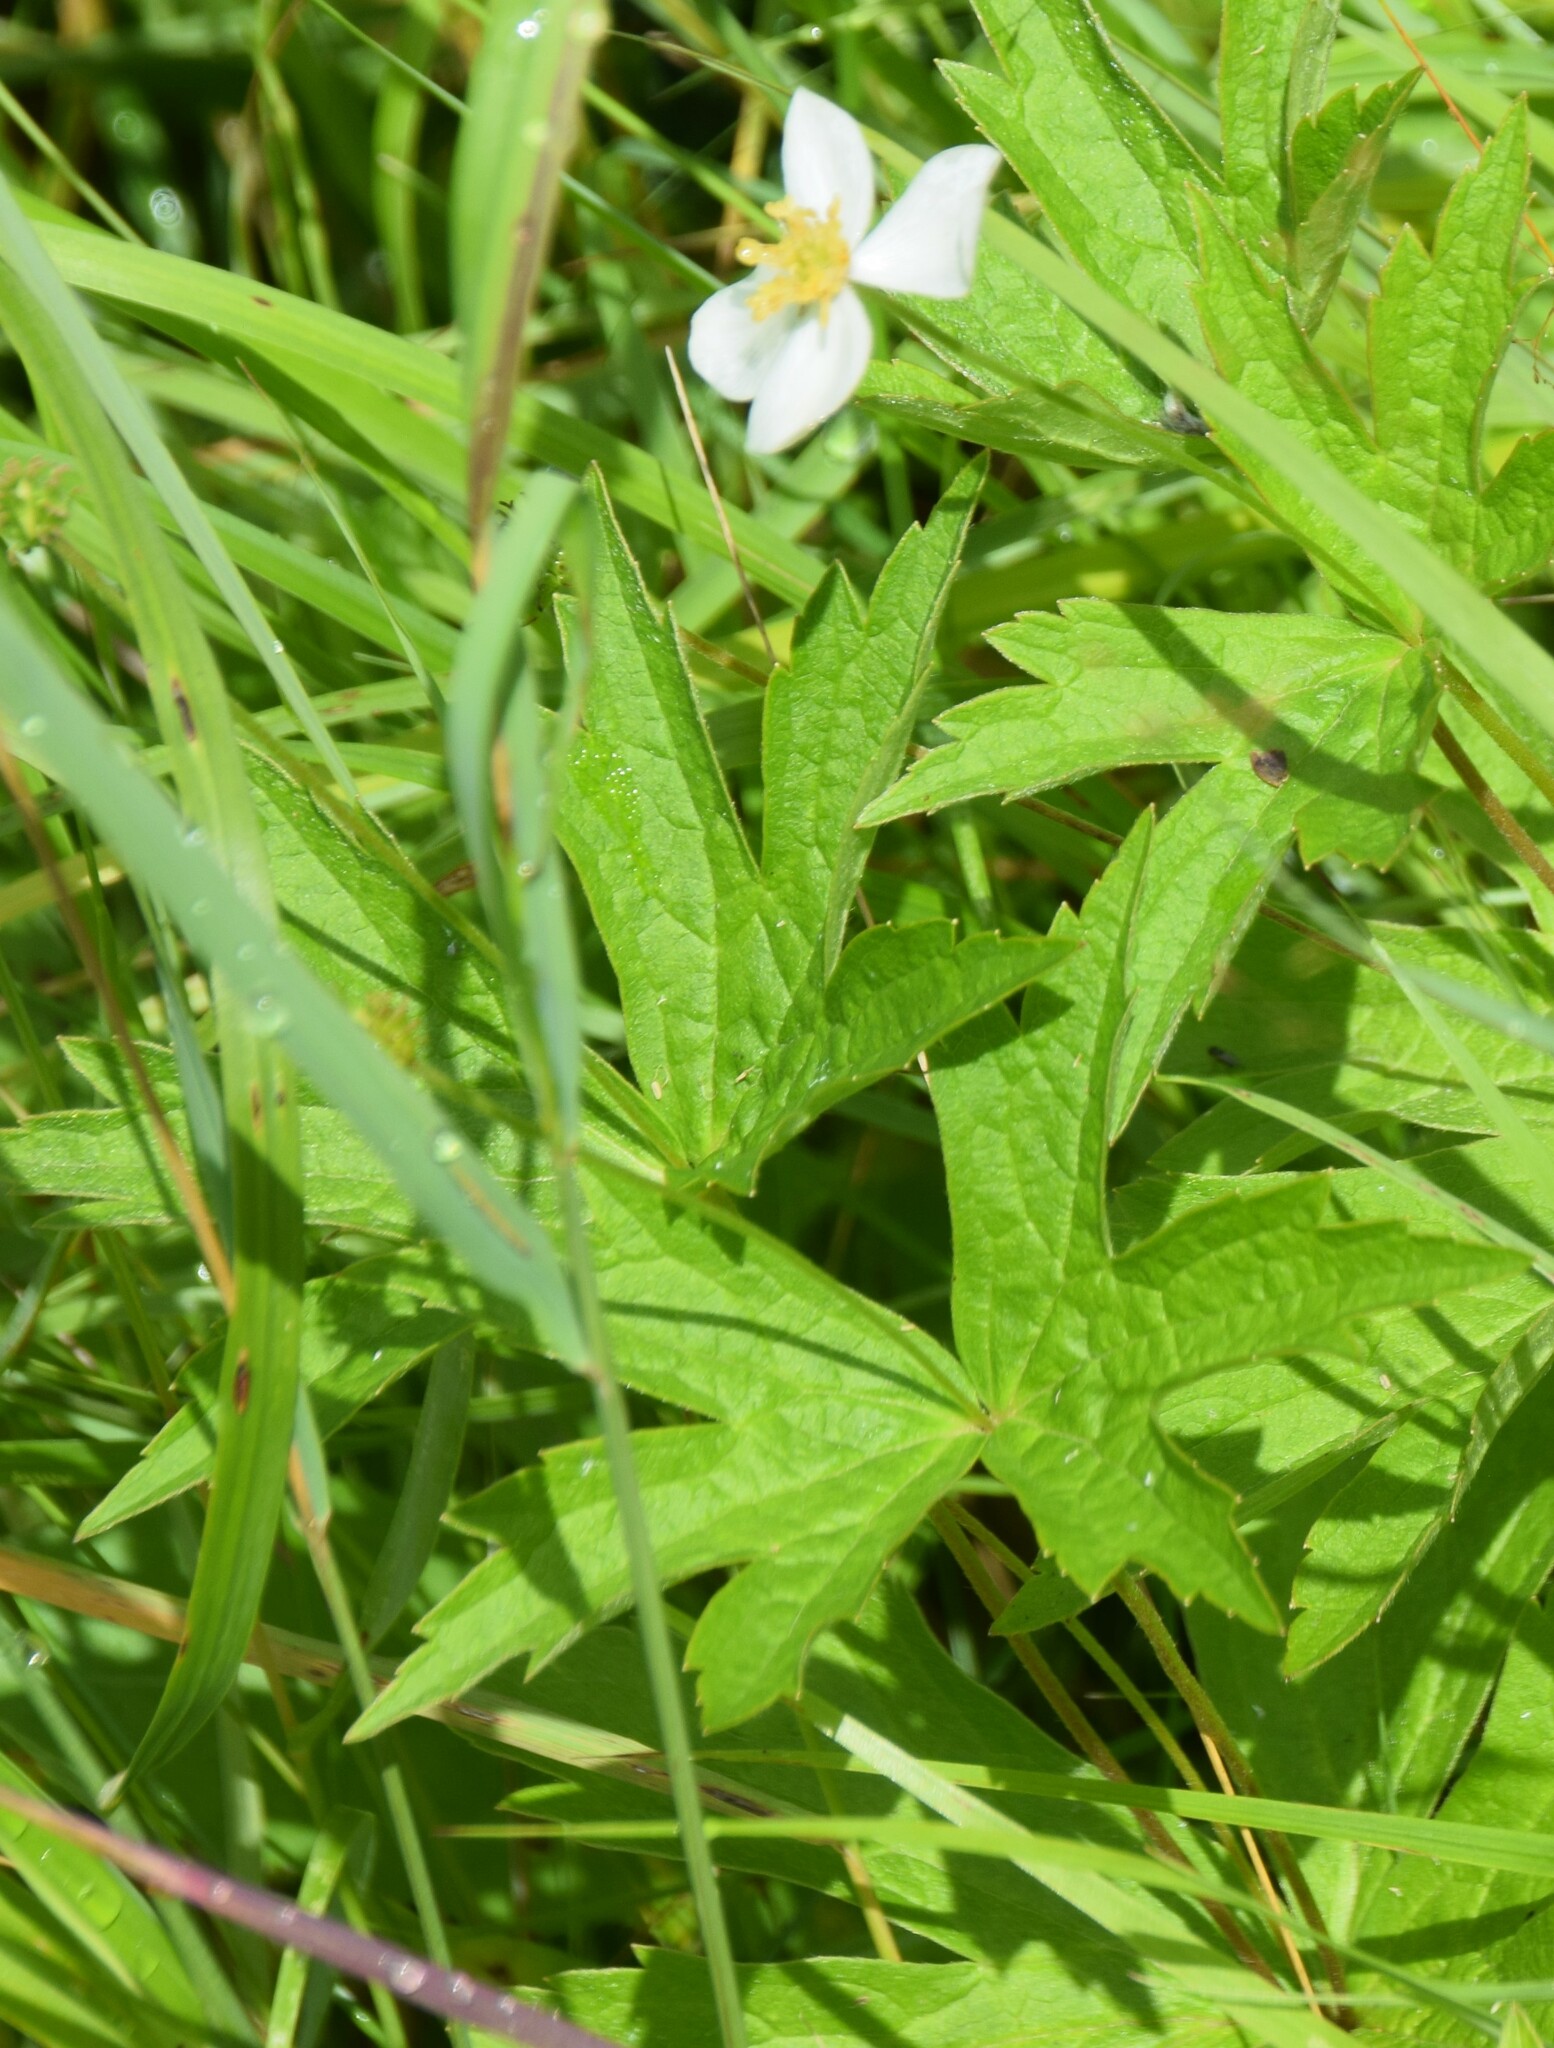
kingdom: Plantae
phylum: Tracheophyta
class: Magnoliopsida
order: Ranunculales
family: Ranunculaceae
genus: Anemonastrum
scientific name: Anemonastrum canadense
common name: Canada anemone
